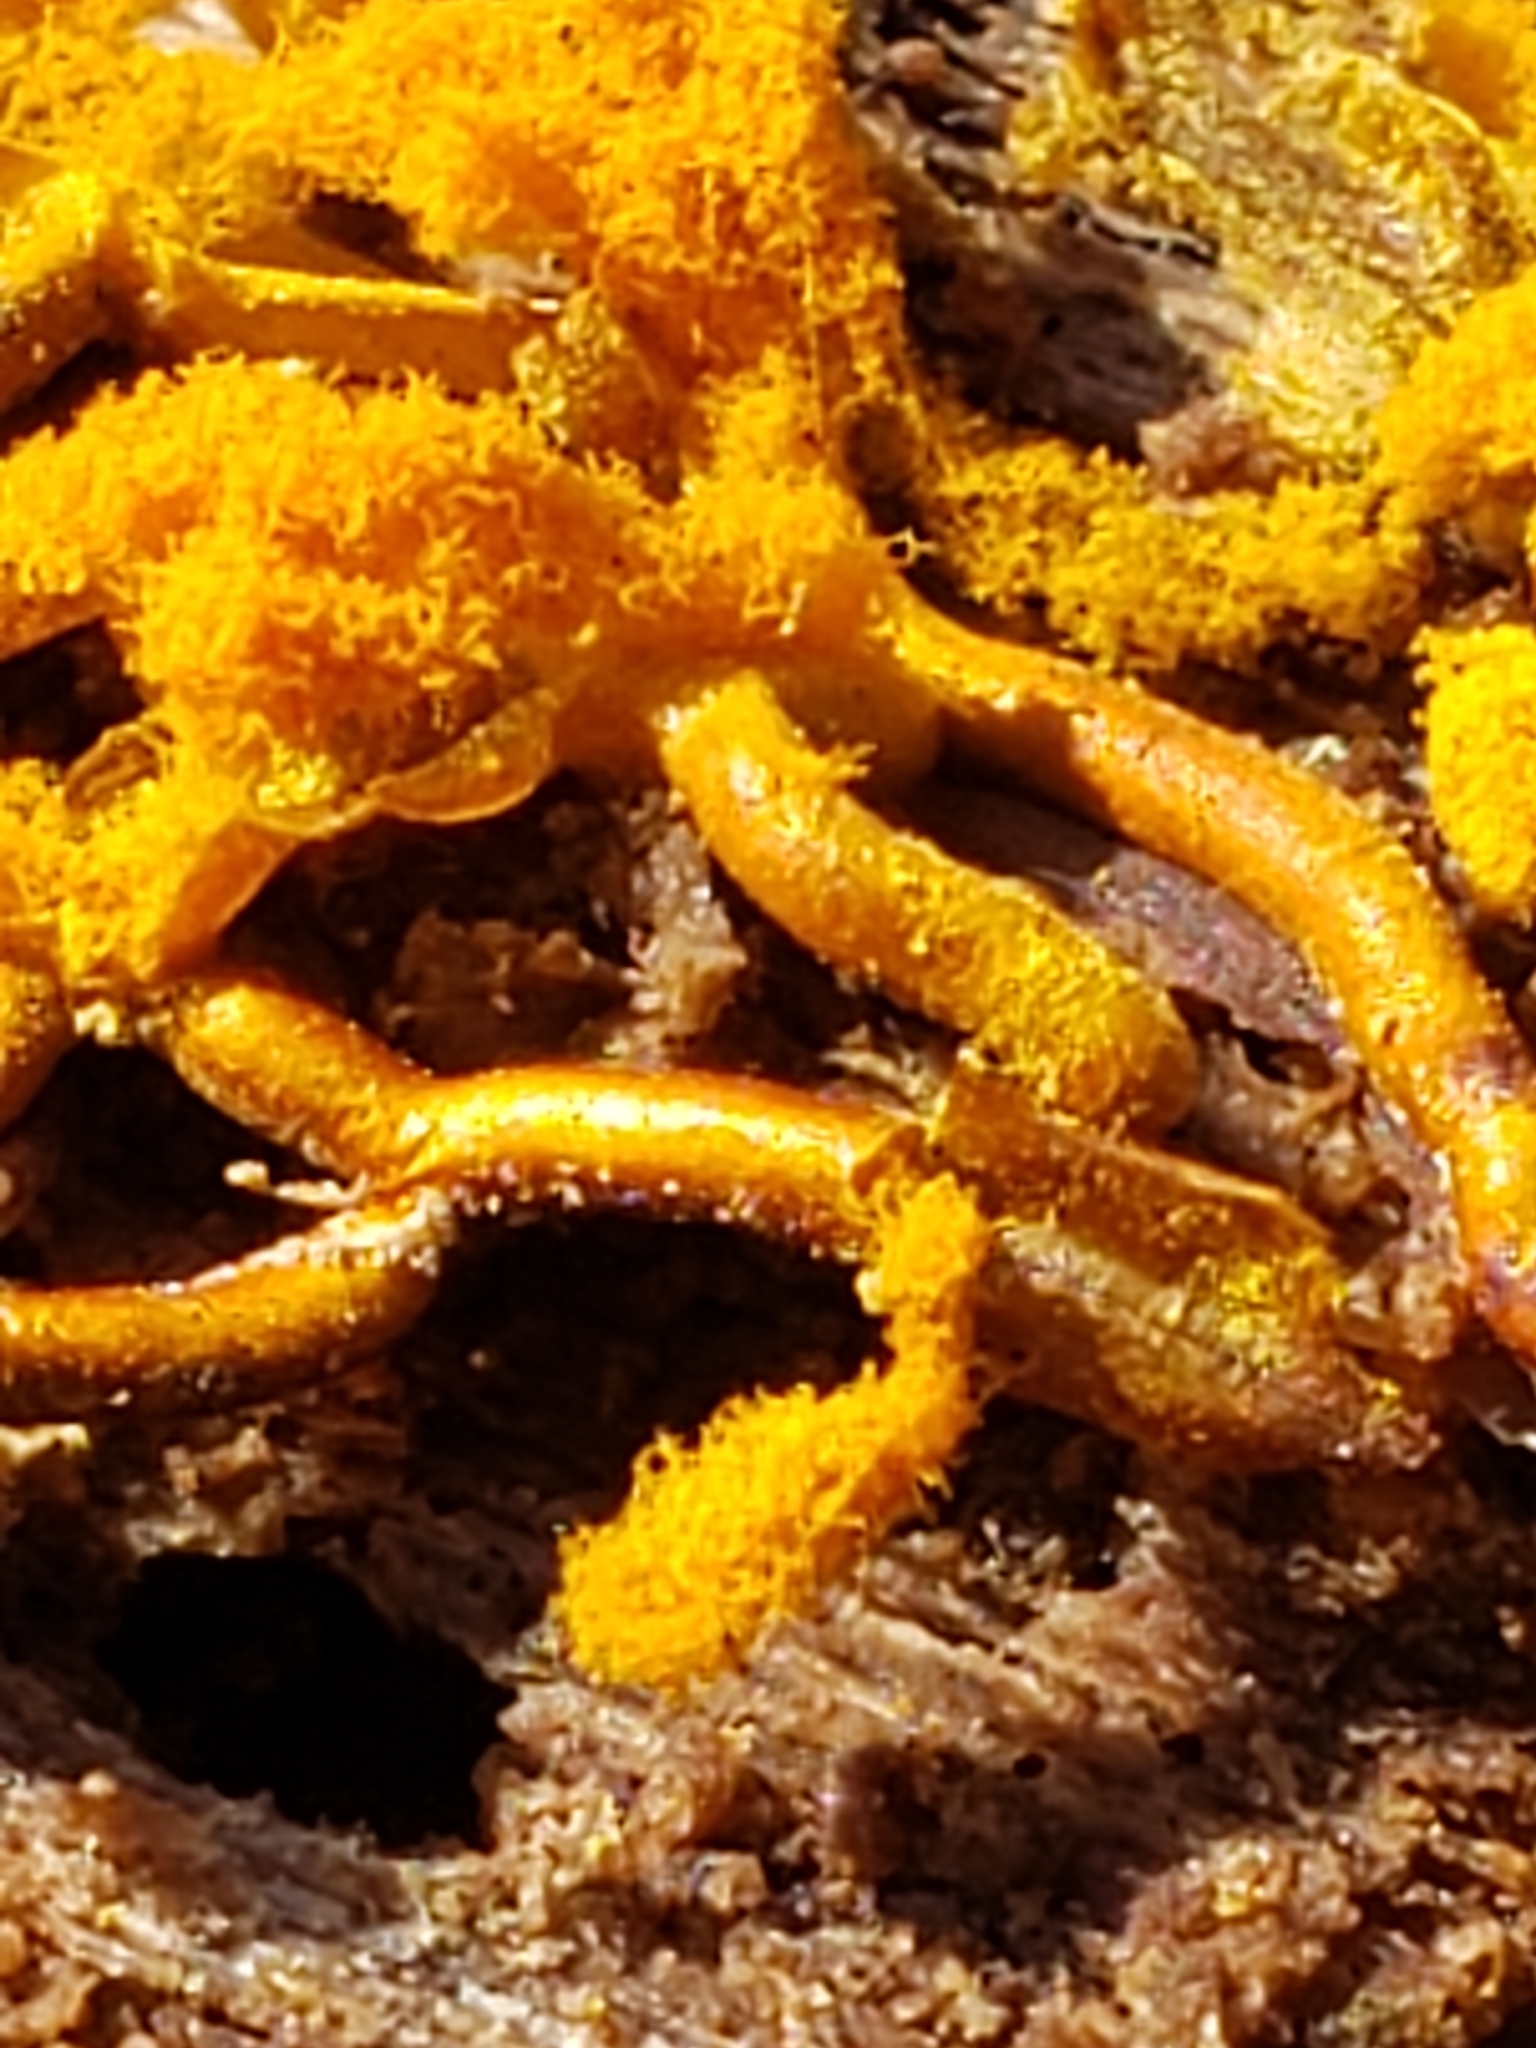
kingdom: Protozoa
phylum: Mycetozoa
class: Myxomycetes
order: Trichiales
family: Arcyriaceae
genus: Hemitrichia
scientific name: Hemitrichia serpula
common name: Pretzel slime mold
